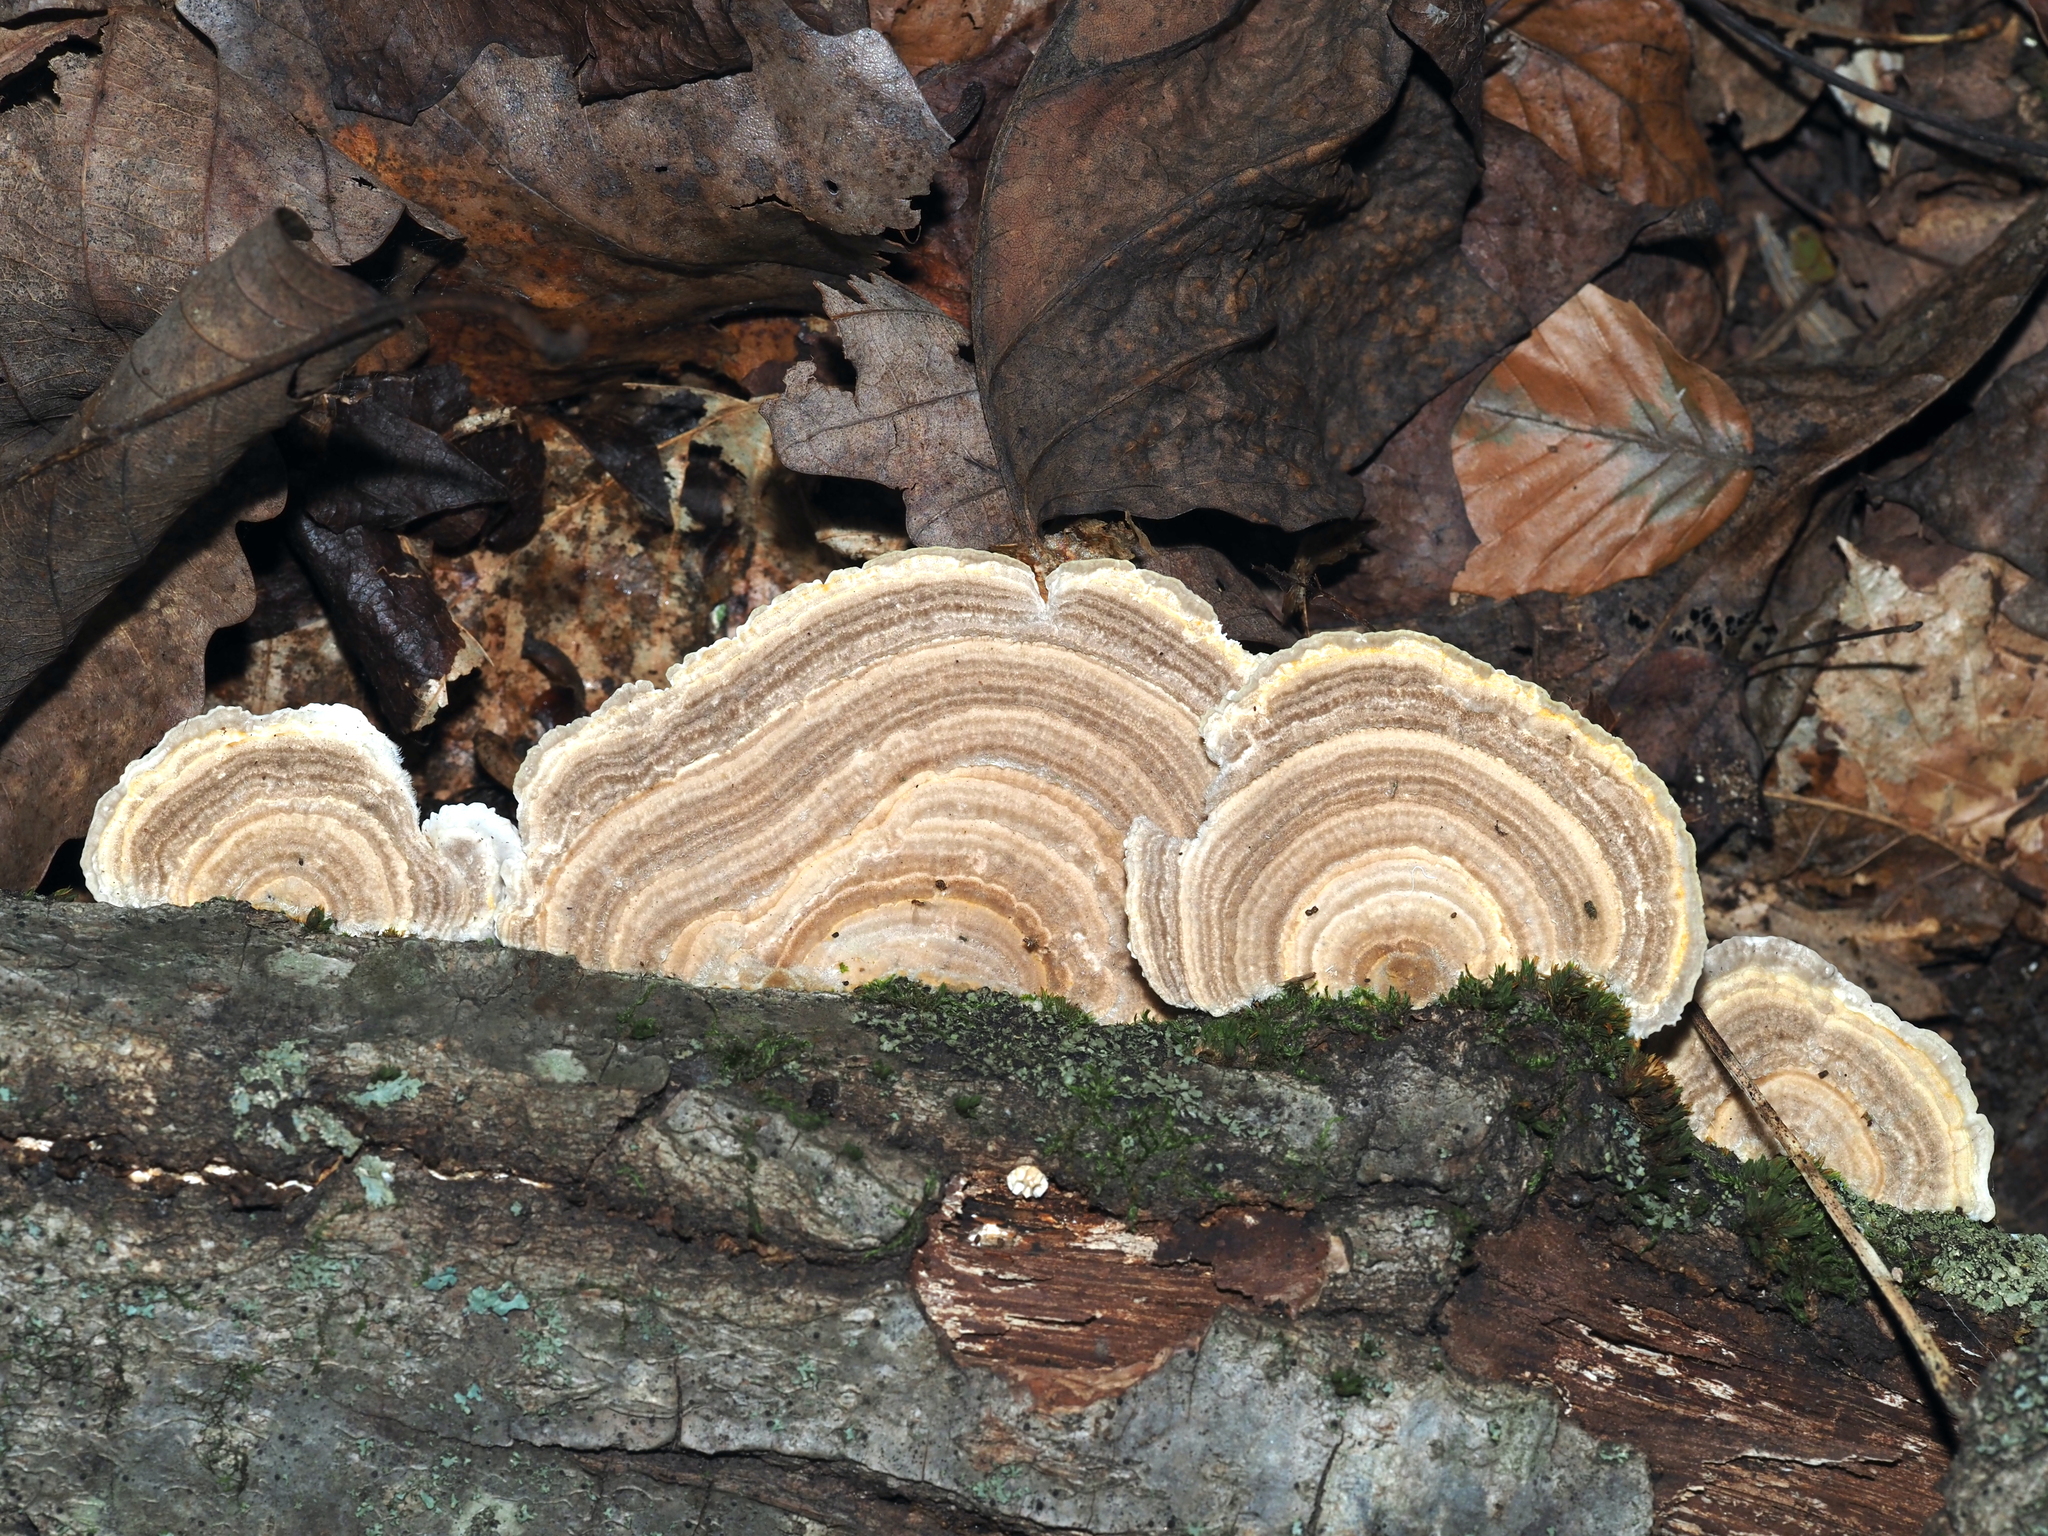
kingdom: Fungi
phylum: Basidiomycota
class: Agaricomycetes
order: Polyporales
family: Polyporaceae
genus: Lenzites
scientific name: Lenzites betulinus
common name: Birch mazegill
